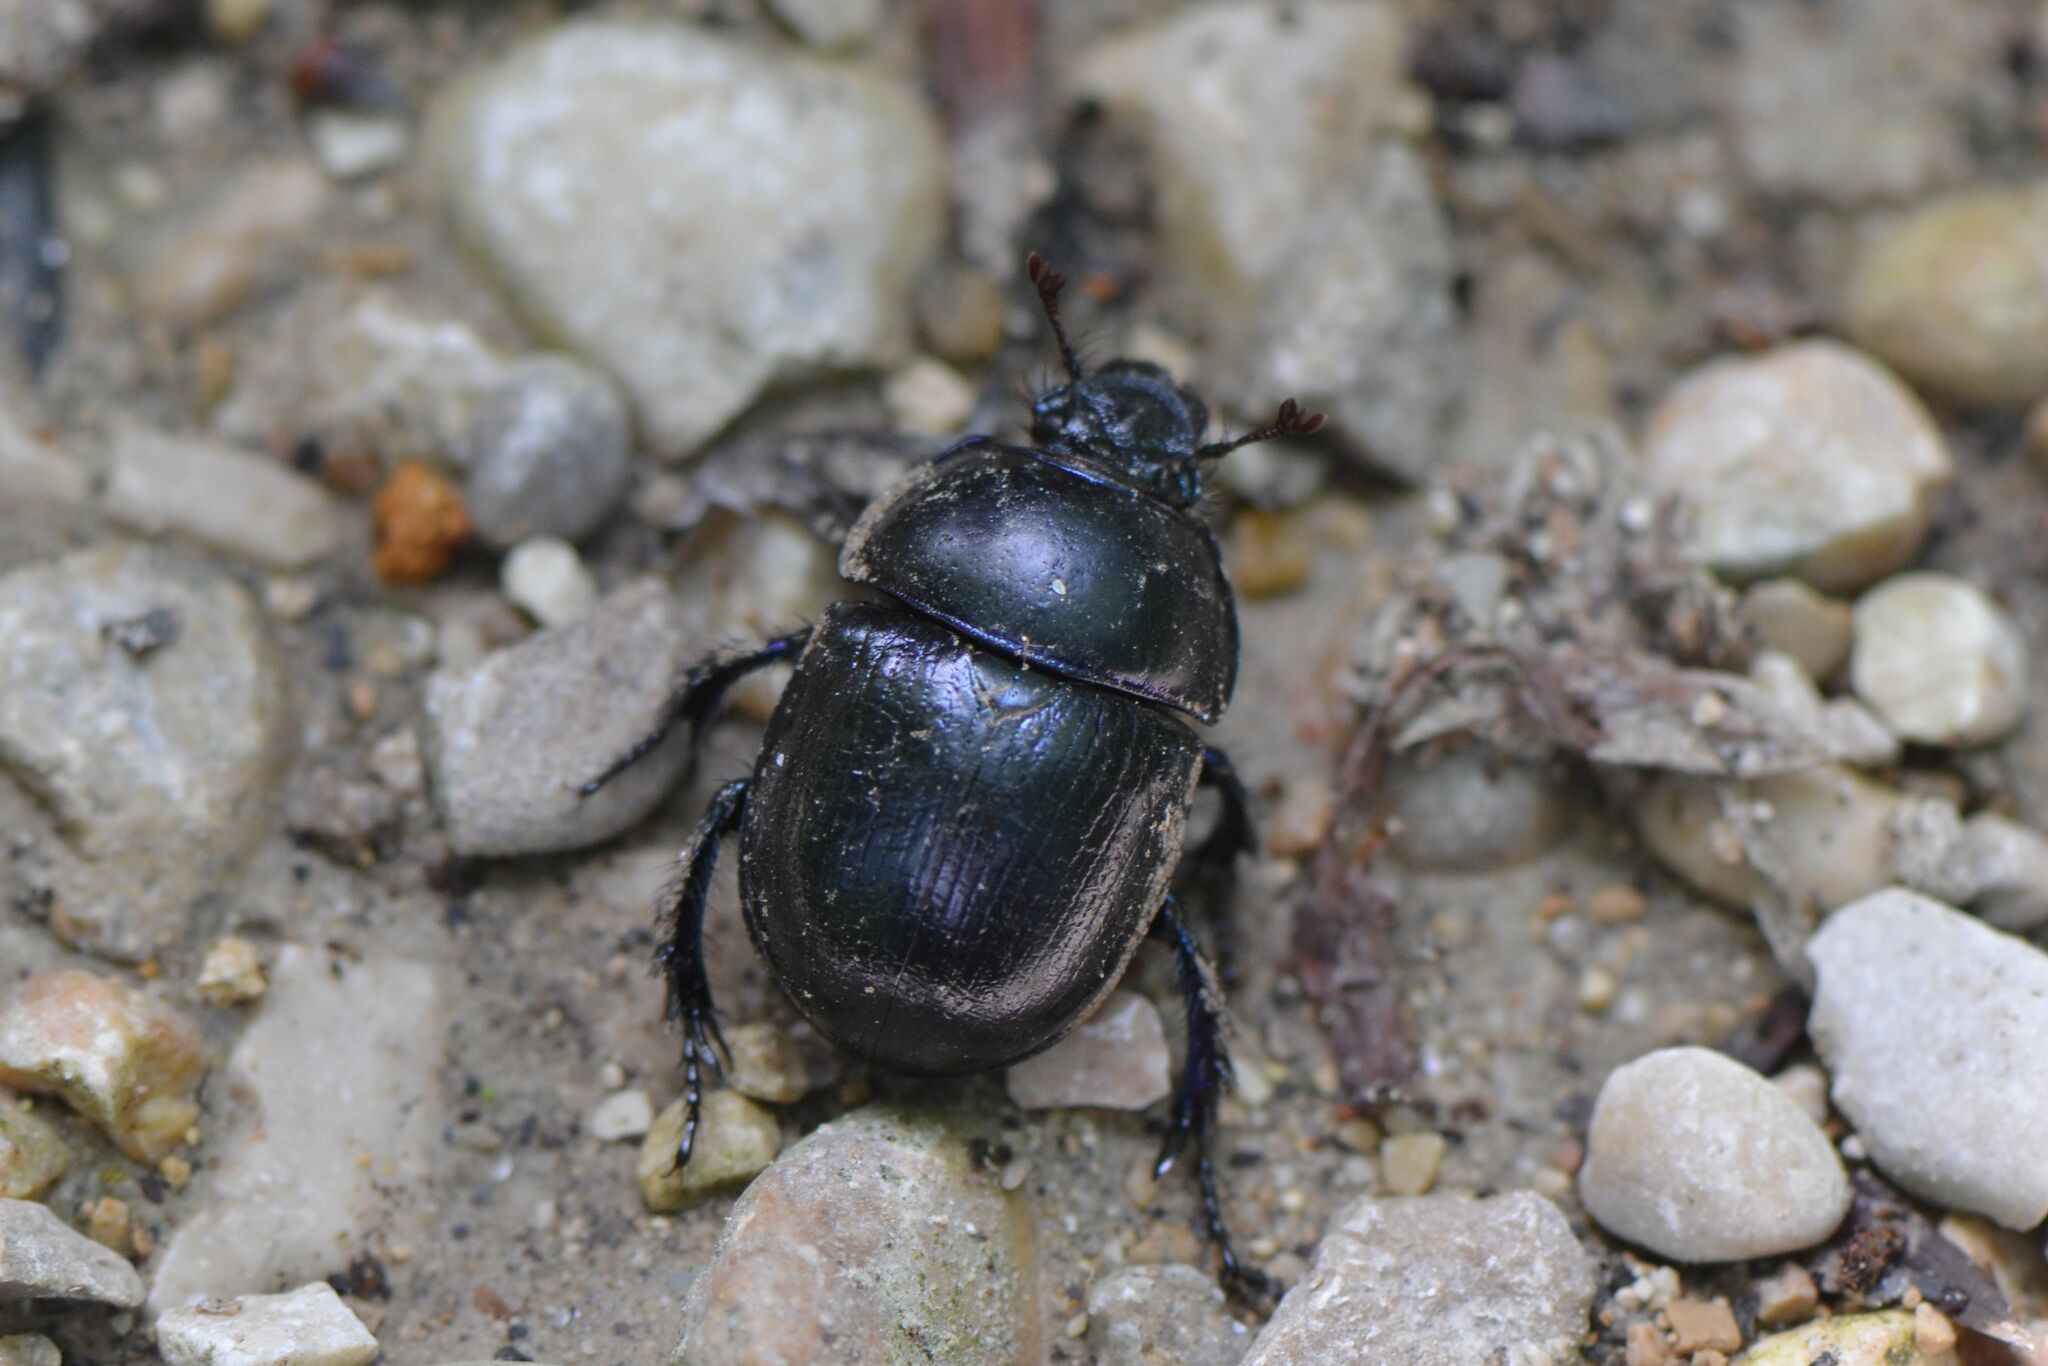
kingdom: Animalia
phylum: Arthropoda
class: Insecta
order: Coleoptera
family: Geotrupidae
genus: Anoplotrupes
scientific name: Anoplotrupes stercorosus
